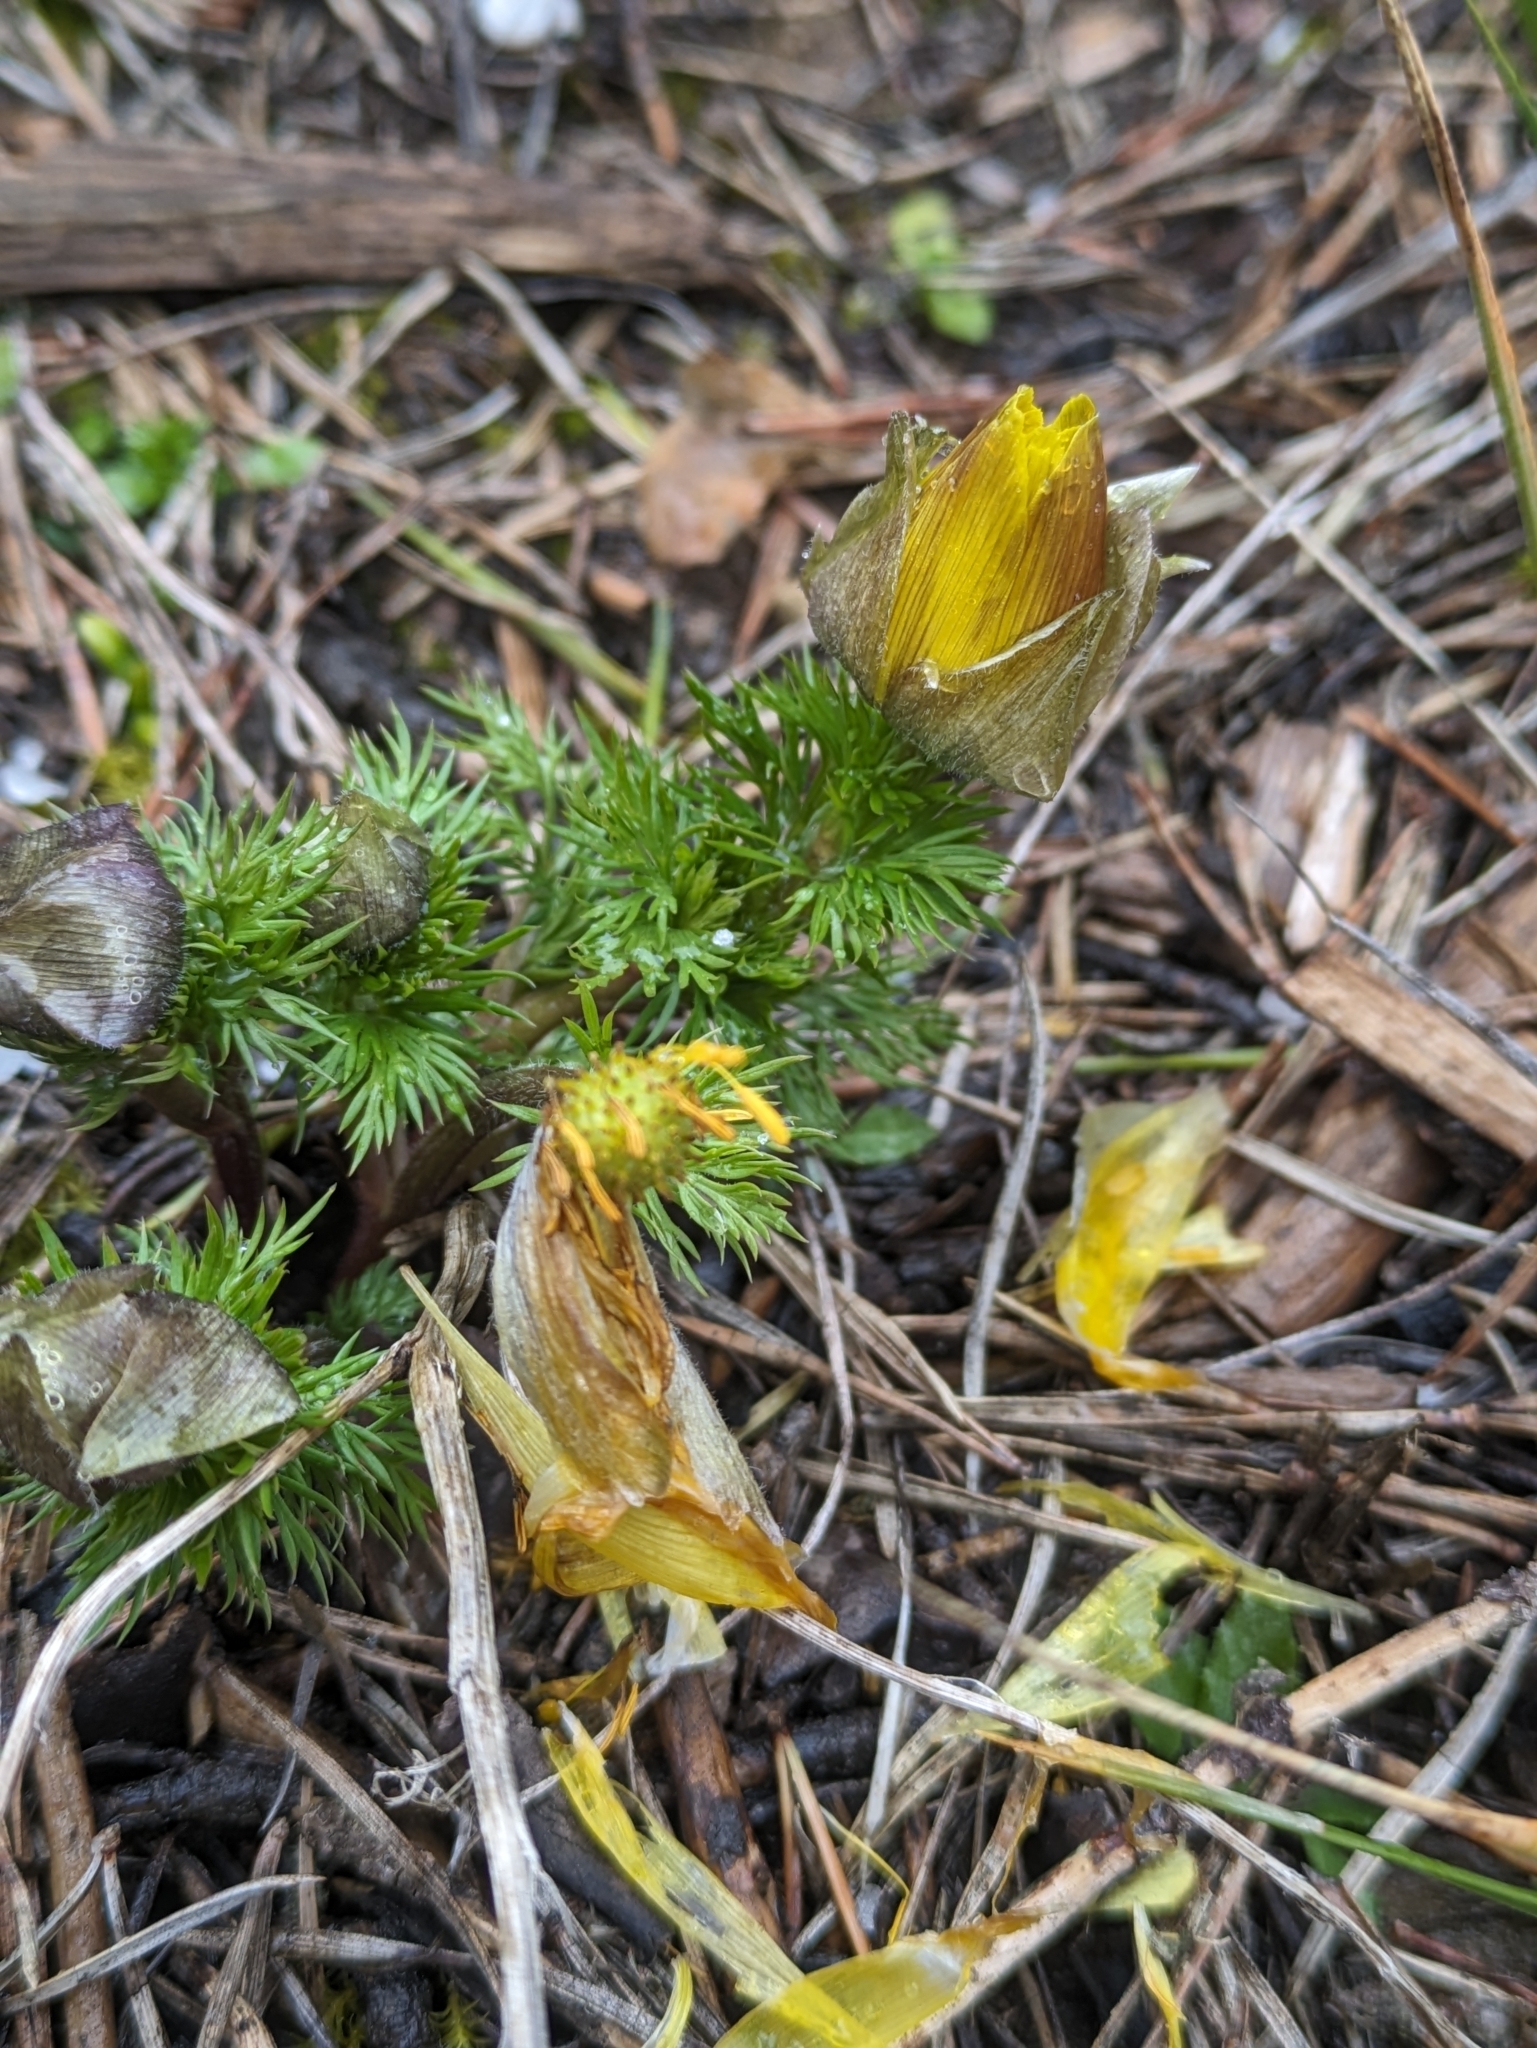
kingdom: Plantae
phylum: Tracheophyta
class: Magnoliopsida
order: Ranunculales
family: Ranunculaceae
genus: Adonis
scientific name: Adonis vernalis
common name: Yellow pheasants-eye
